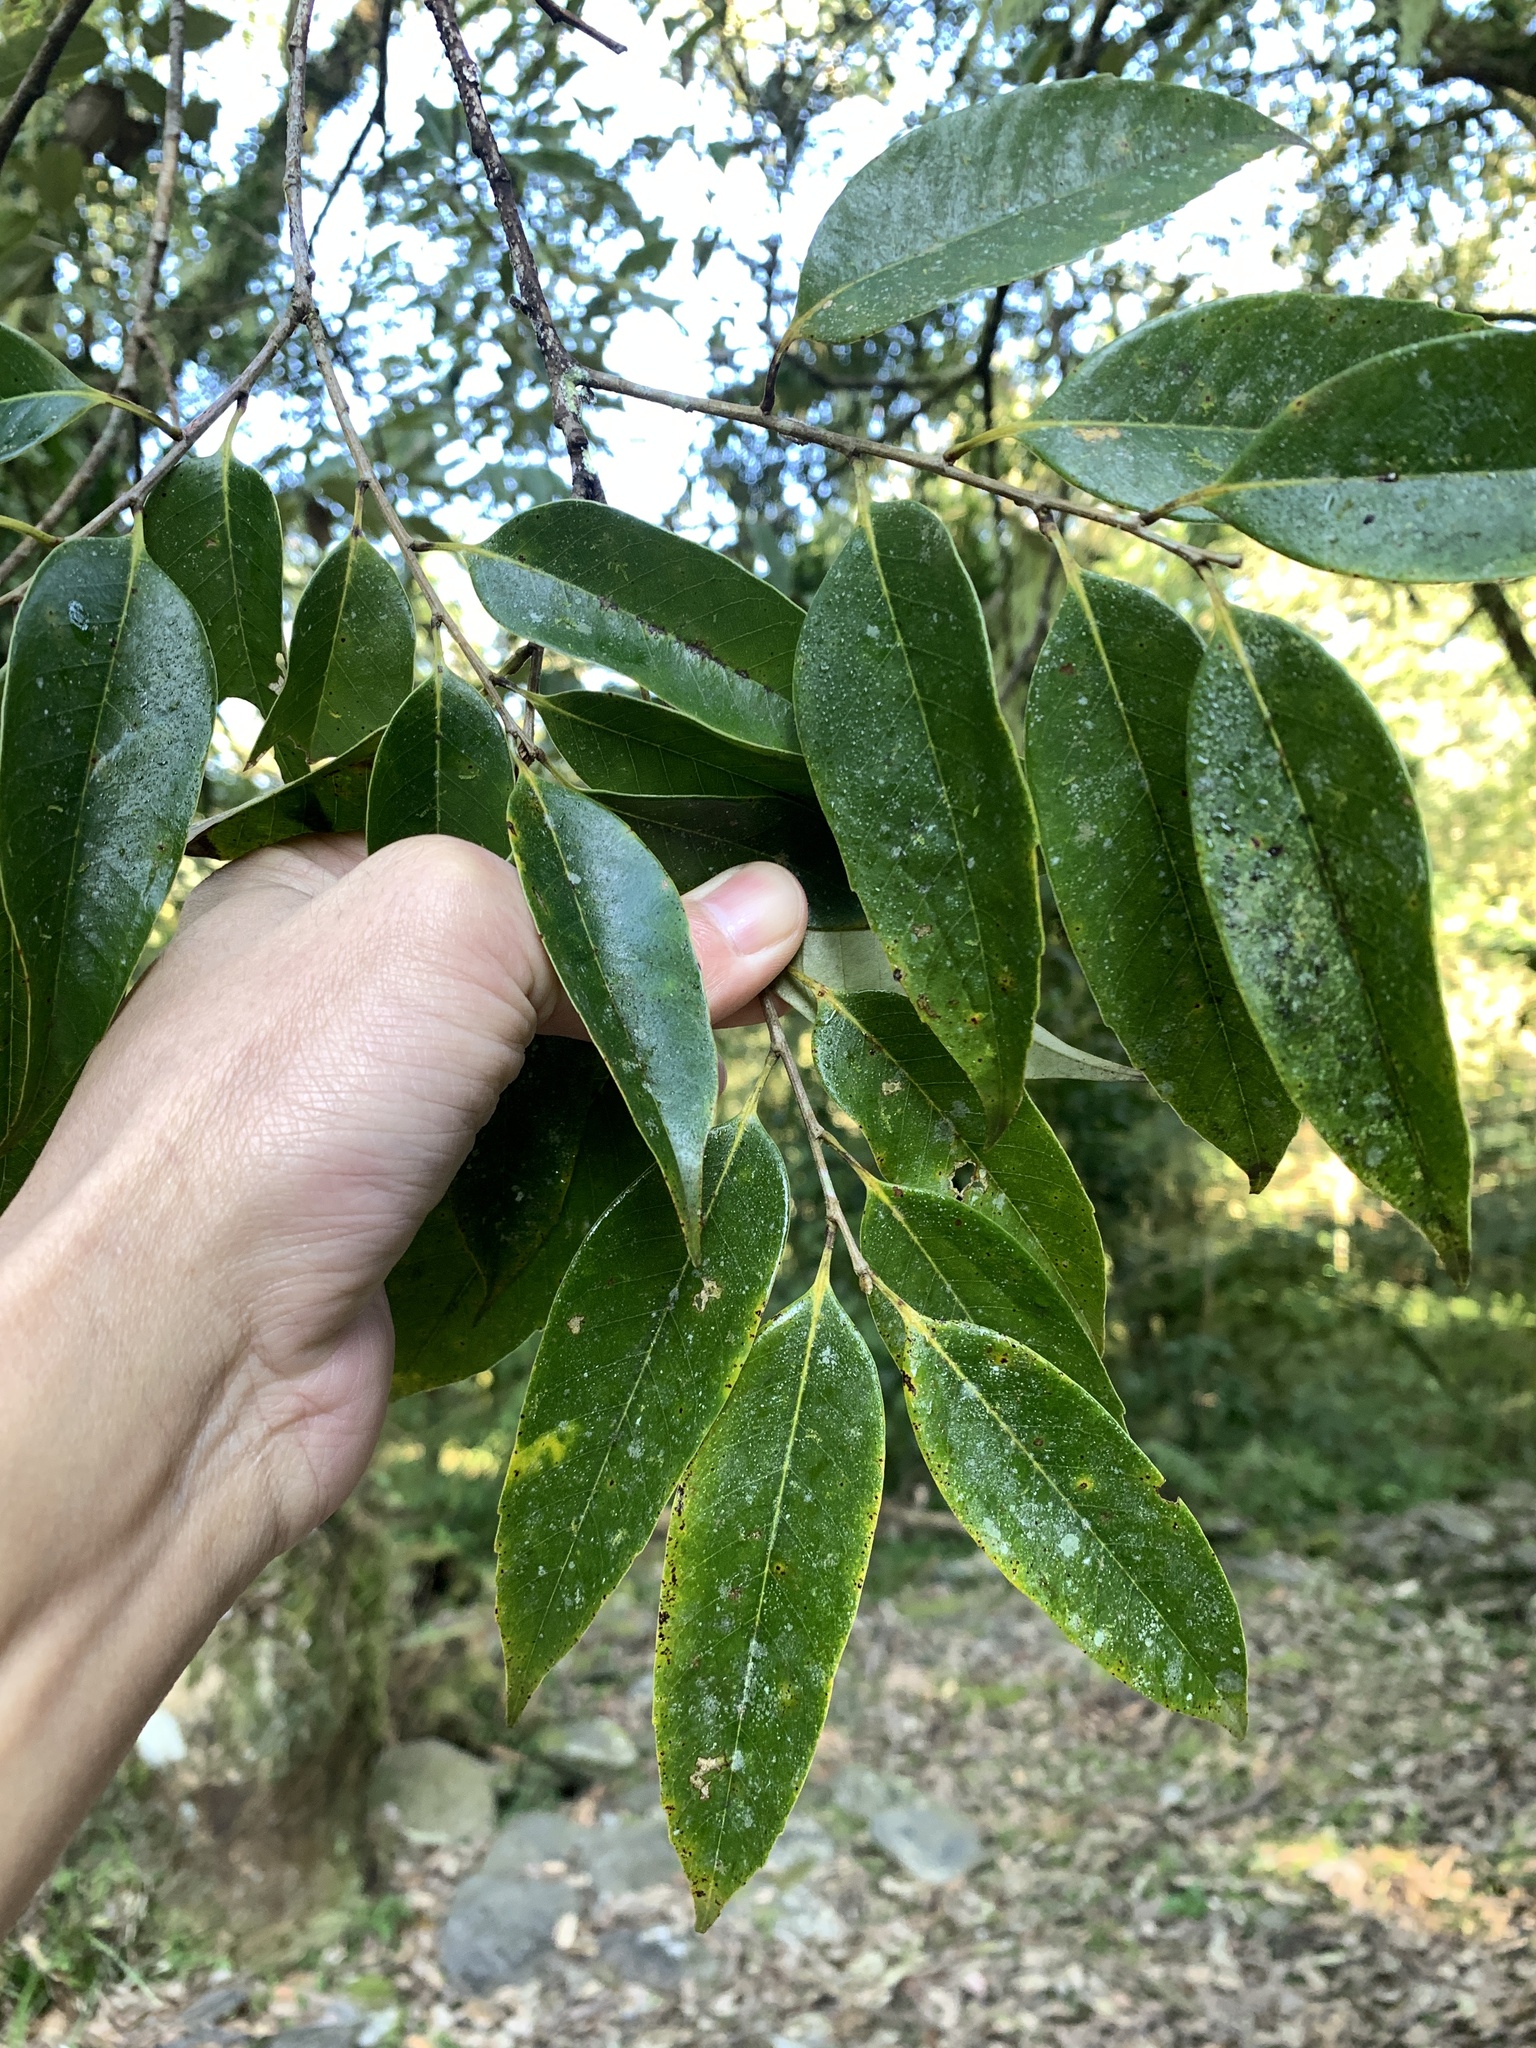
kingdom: Plantae
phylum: Tracheophyta
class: Magnoliopsida
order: Fagales
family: Fagaceae
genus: Castanopsis
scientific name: Castanopsis carlesii
